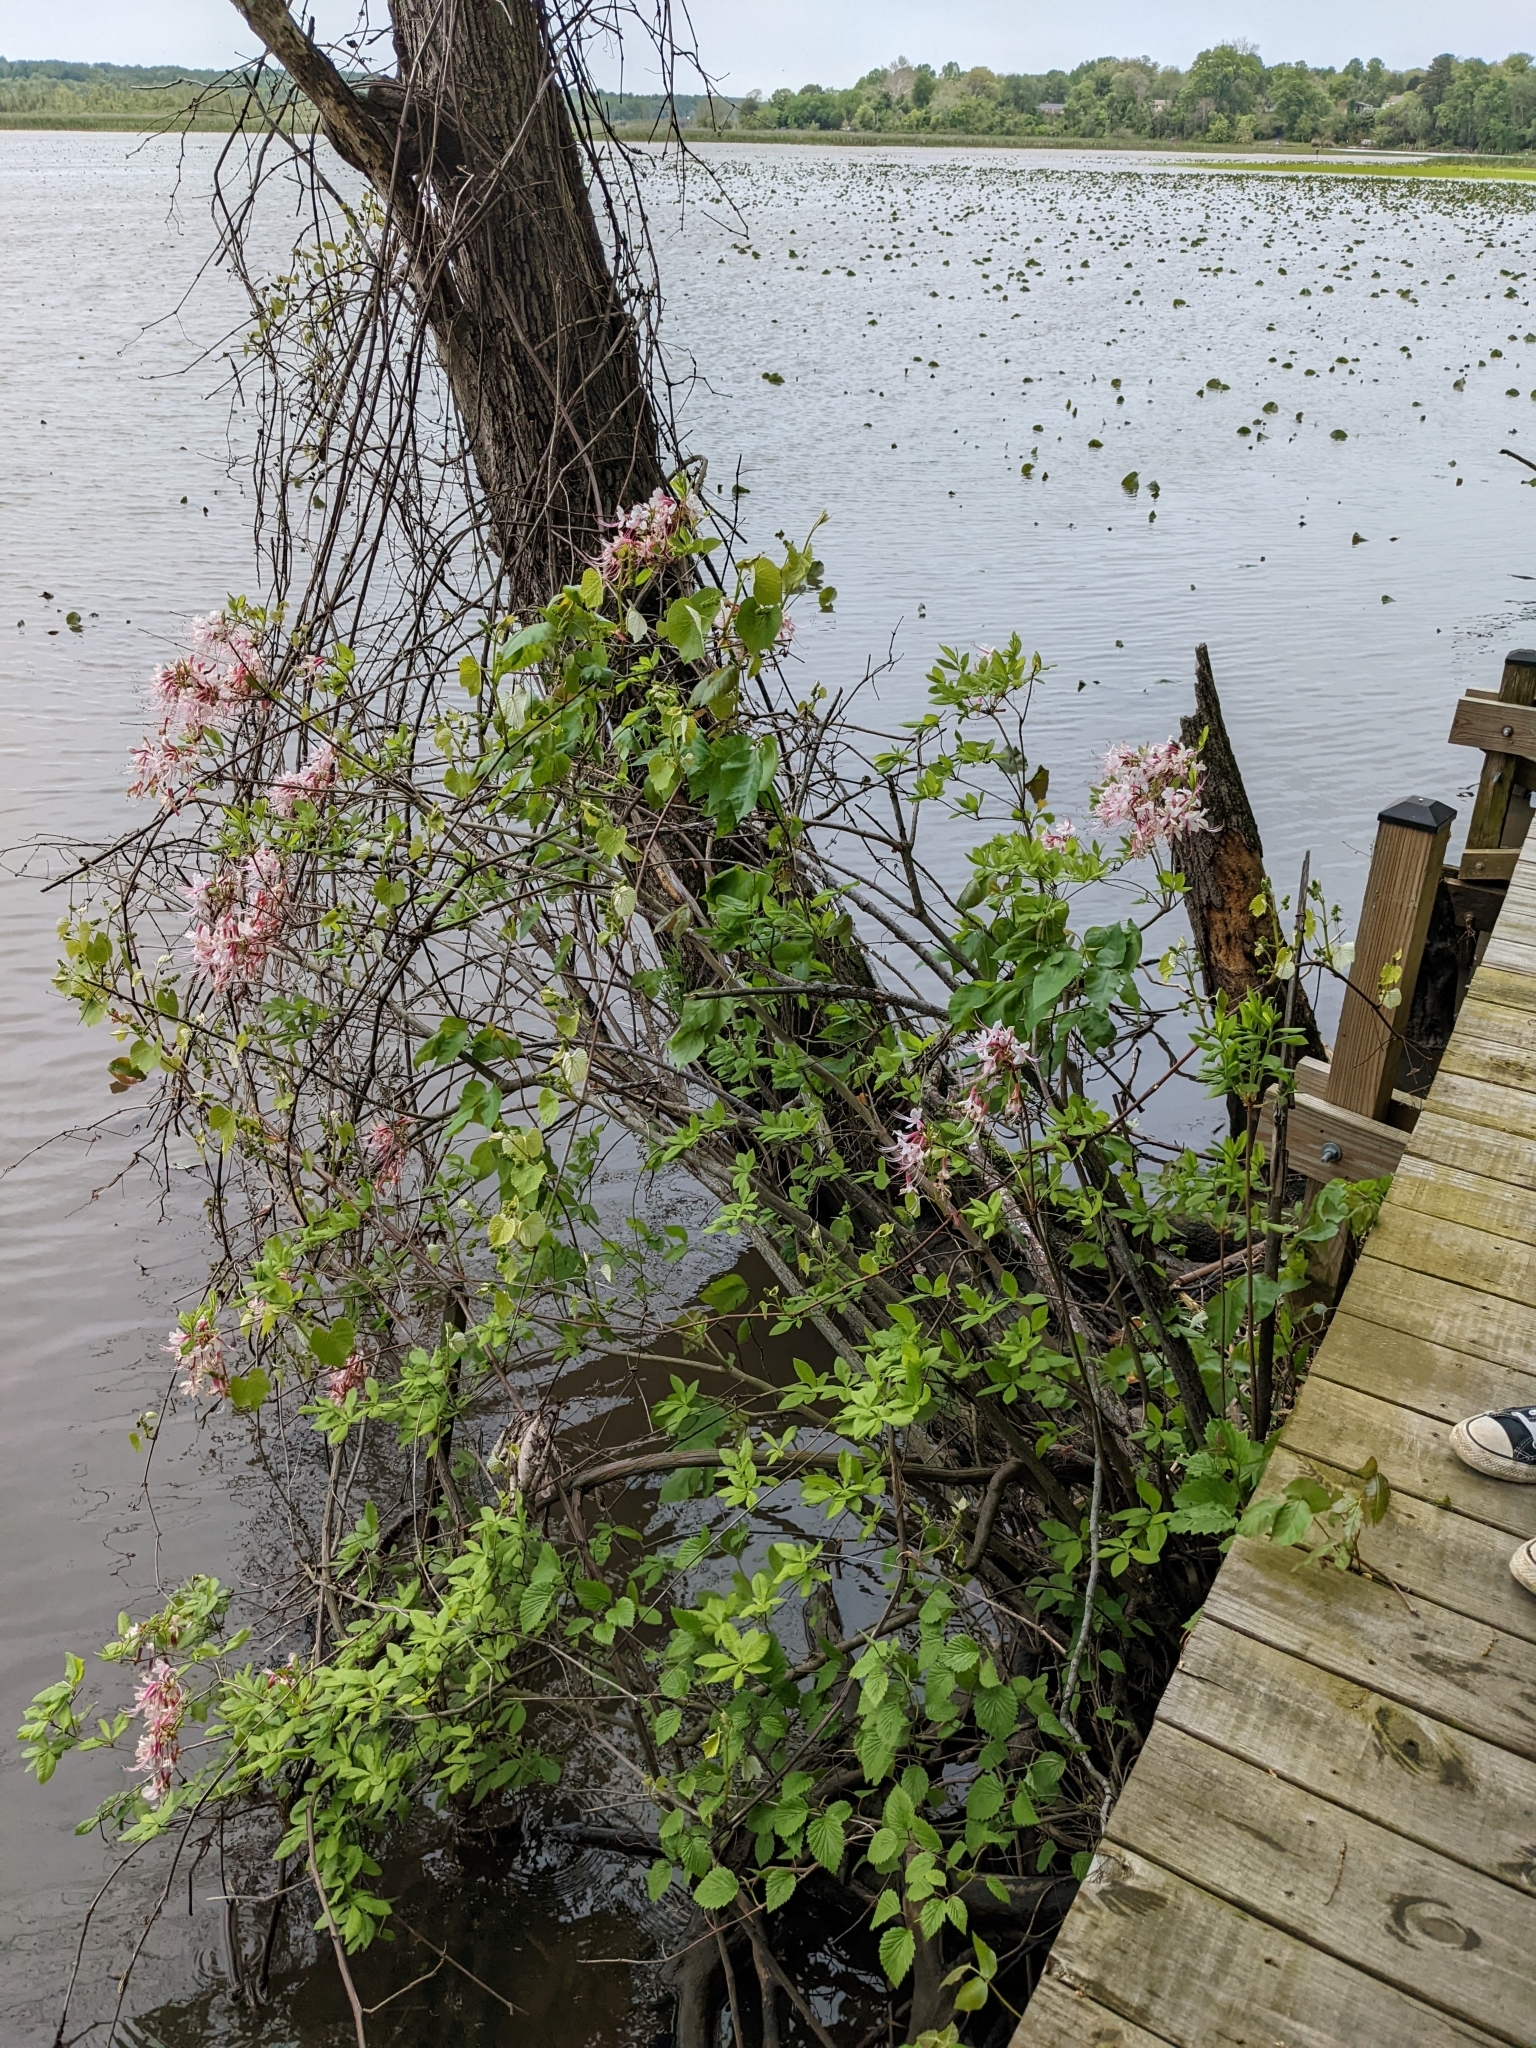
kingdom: Plantae
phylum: Tracheophyta
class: Magnoliopsida
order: Ericales
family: Ericaceae
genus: Rhododendron
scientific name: Rhododendron periclymenoides
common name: Election-pink
